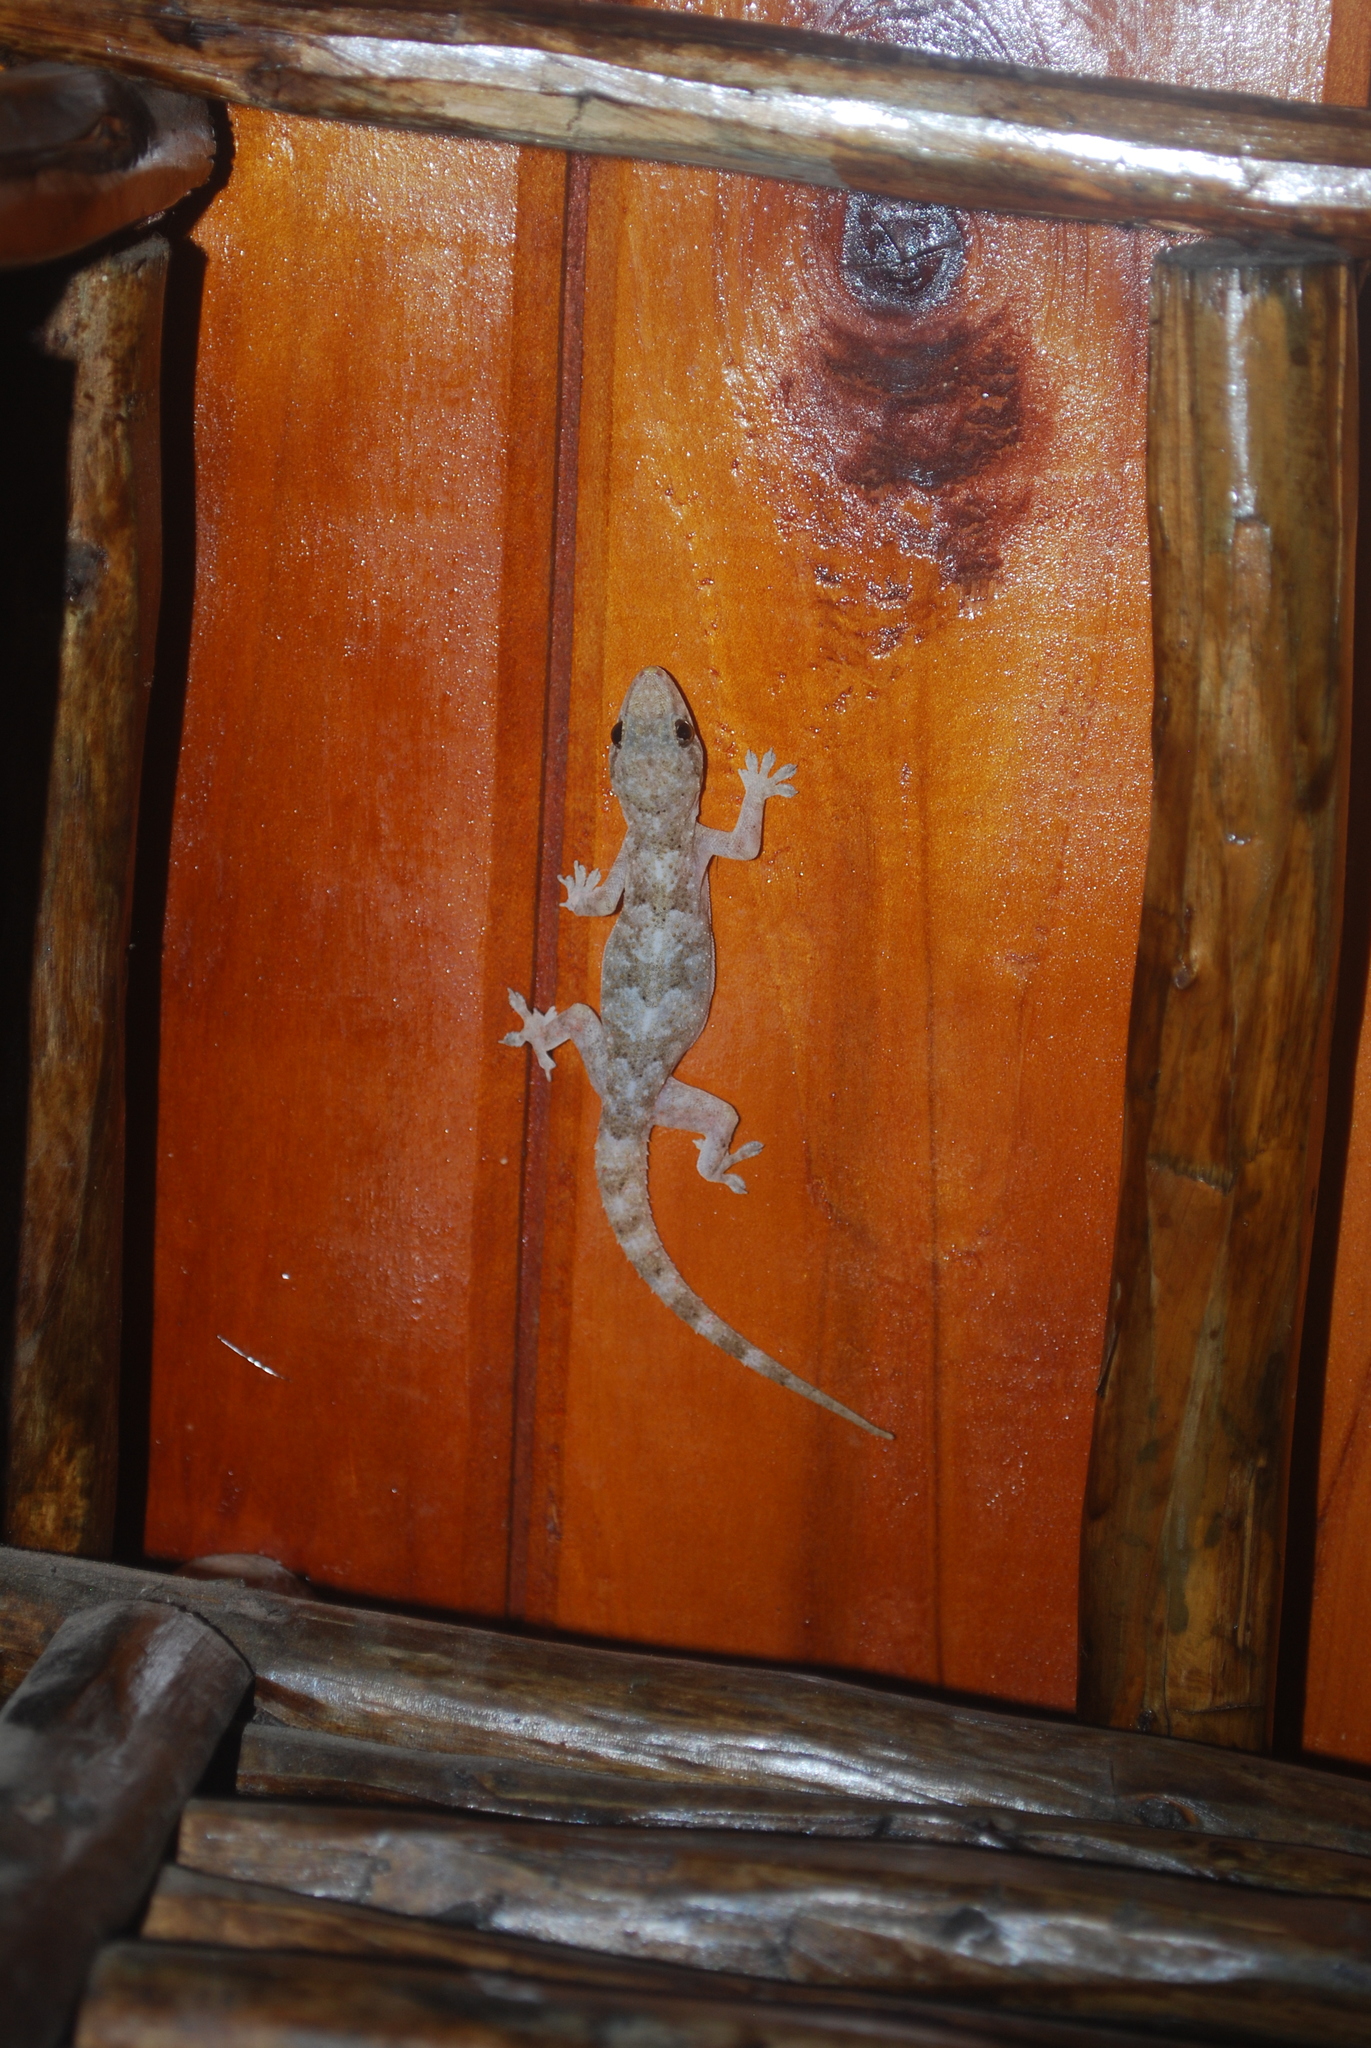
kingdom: Animalia
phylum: Chordata
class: Squamata
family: Gekkonidae
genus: Hemidactylus
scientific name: Hemidactylus mabouia
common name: House gecko
